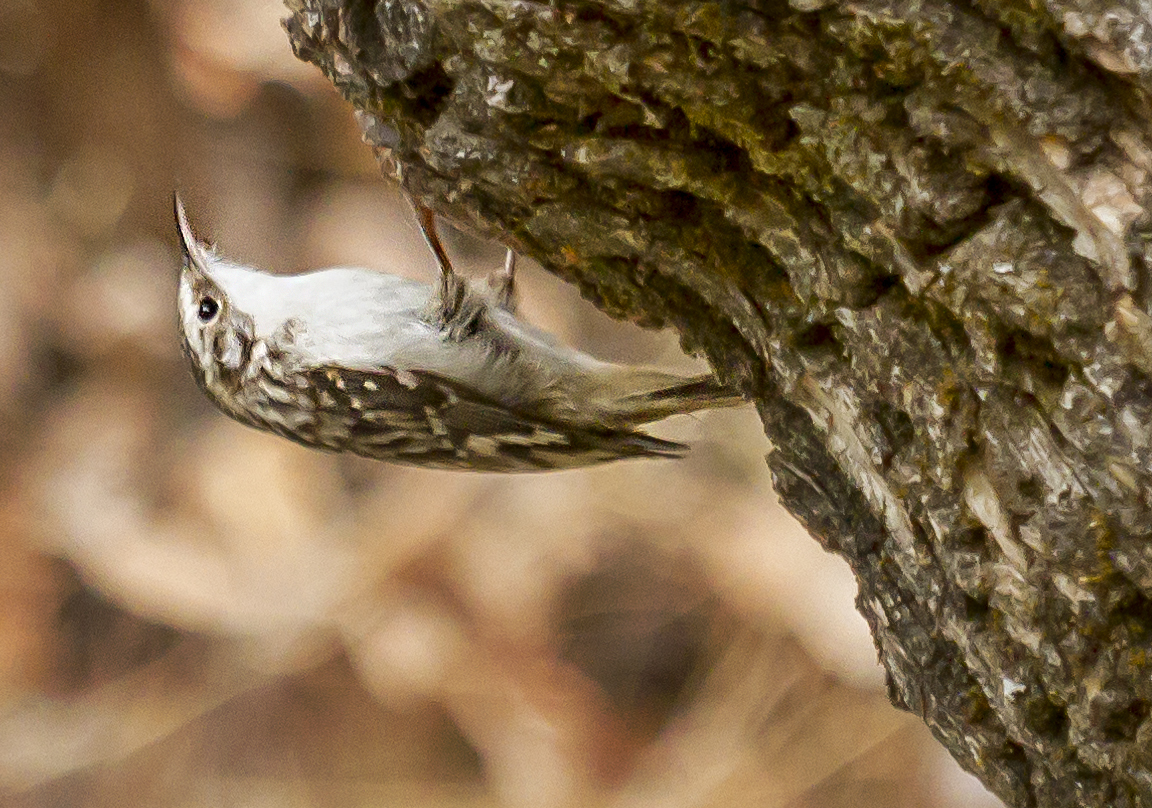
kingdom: Animalia
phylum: Chordata
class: Aves
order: Passeriformes
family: Certhiidae
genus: Certhia
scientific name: Certhia americana
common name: Brown creeper
